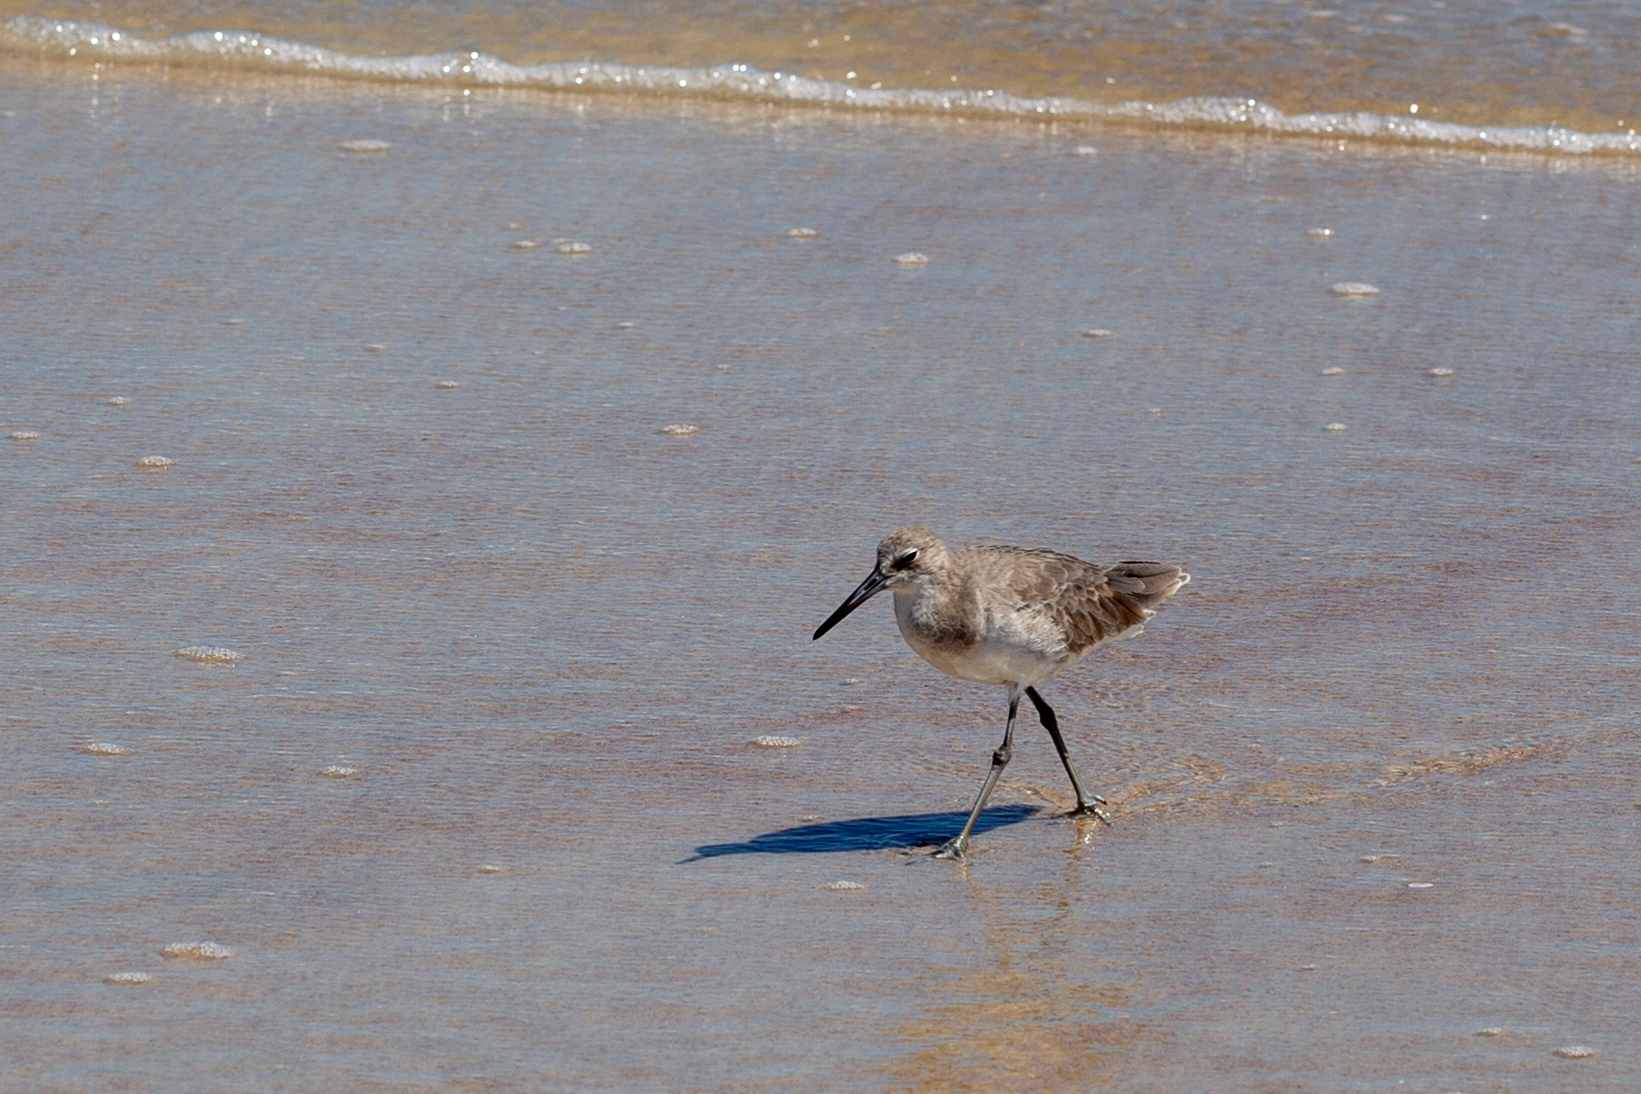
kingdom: Animalia
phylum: Chordata
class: Aves
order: Charadriiformes
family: Scolopacidae
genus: Tringa
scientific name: Tringa semipalmata
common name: Willet
